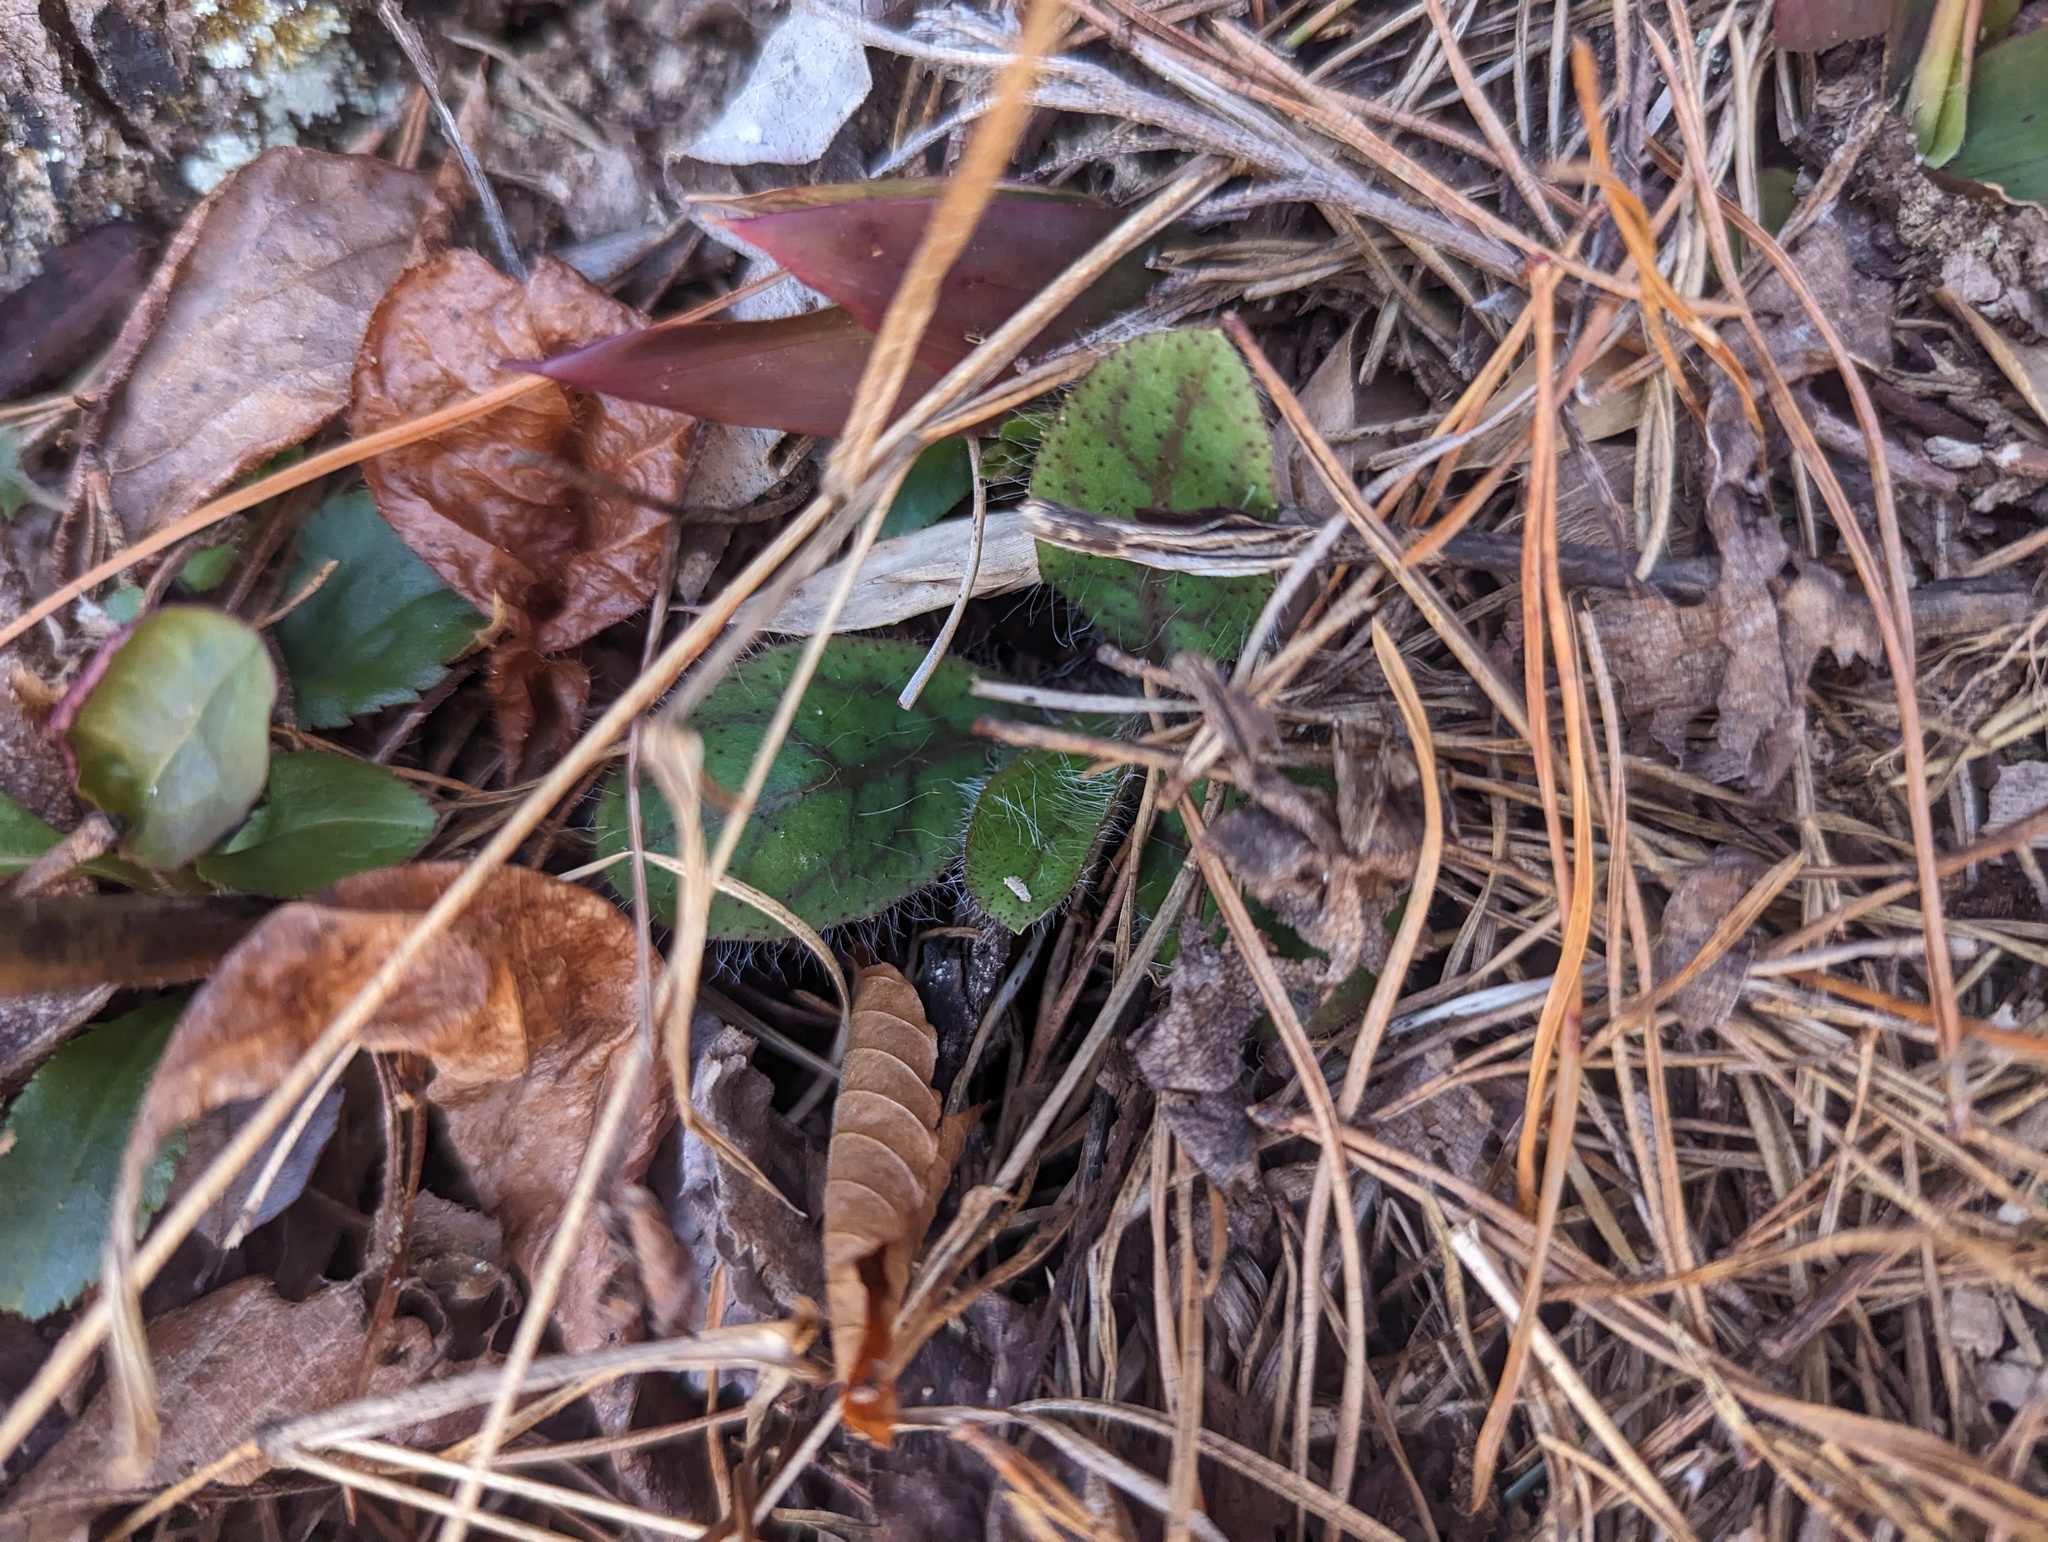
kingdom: Plantae
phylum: Tracheophyta
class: Magnoliopsida
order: Asterales
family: Asteraceae
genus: Hieracium
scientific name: Hieracium venosum
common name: Rattlesnake hawkweed
